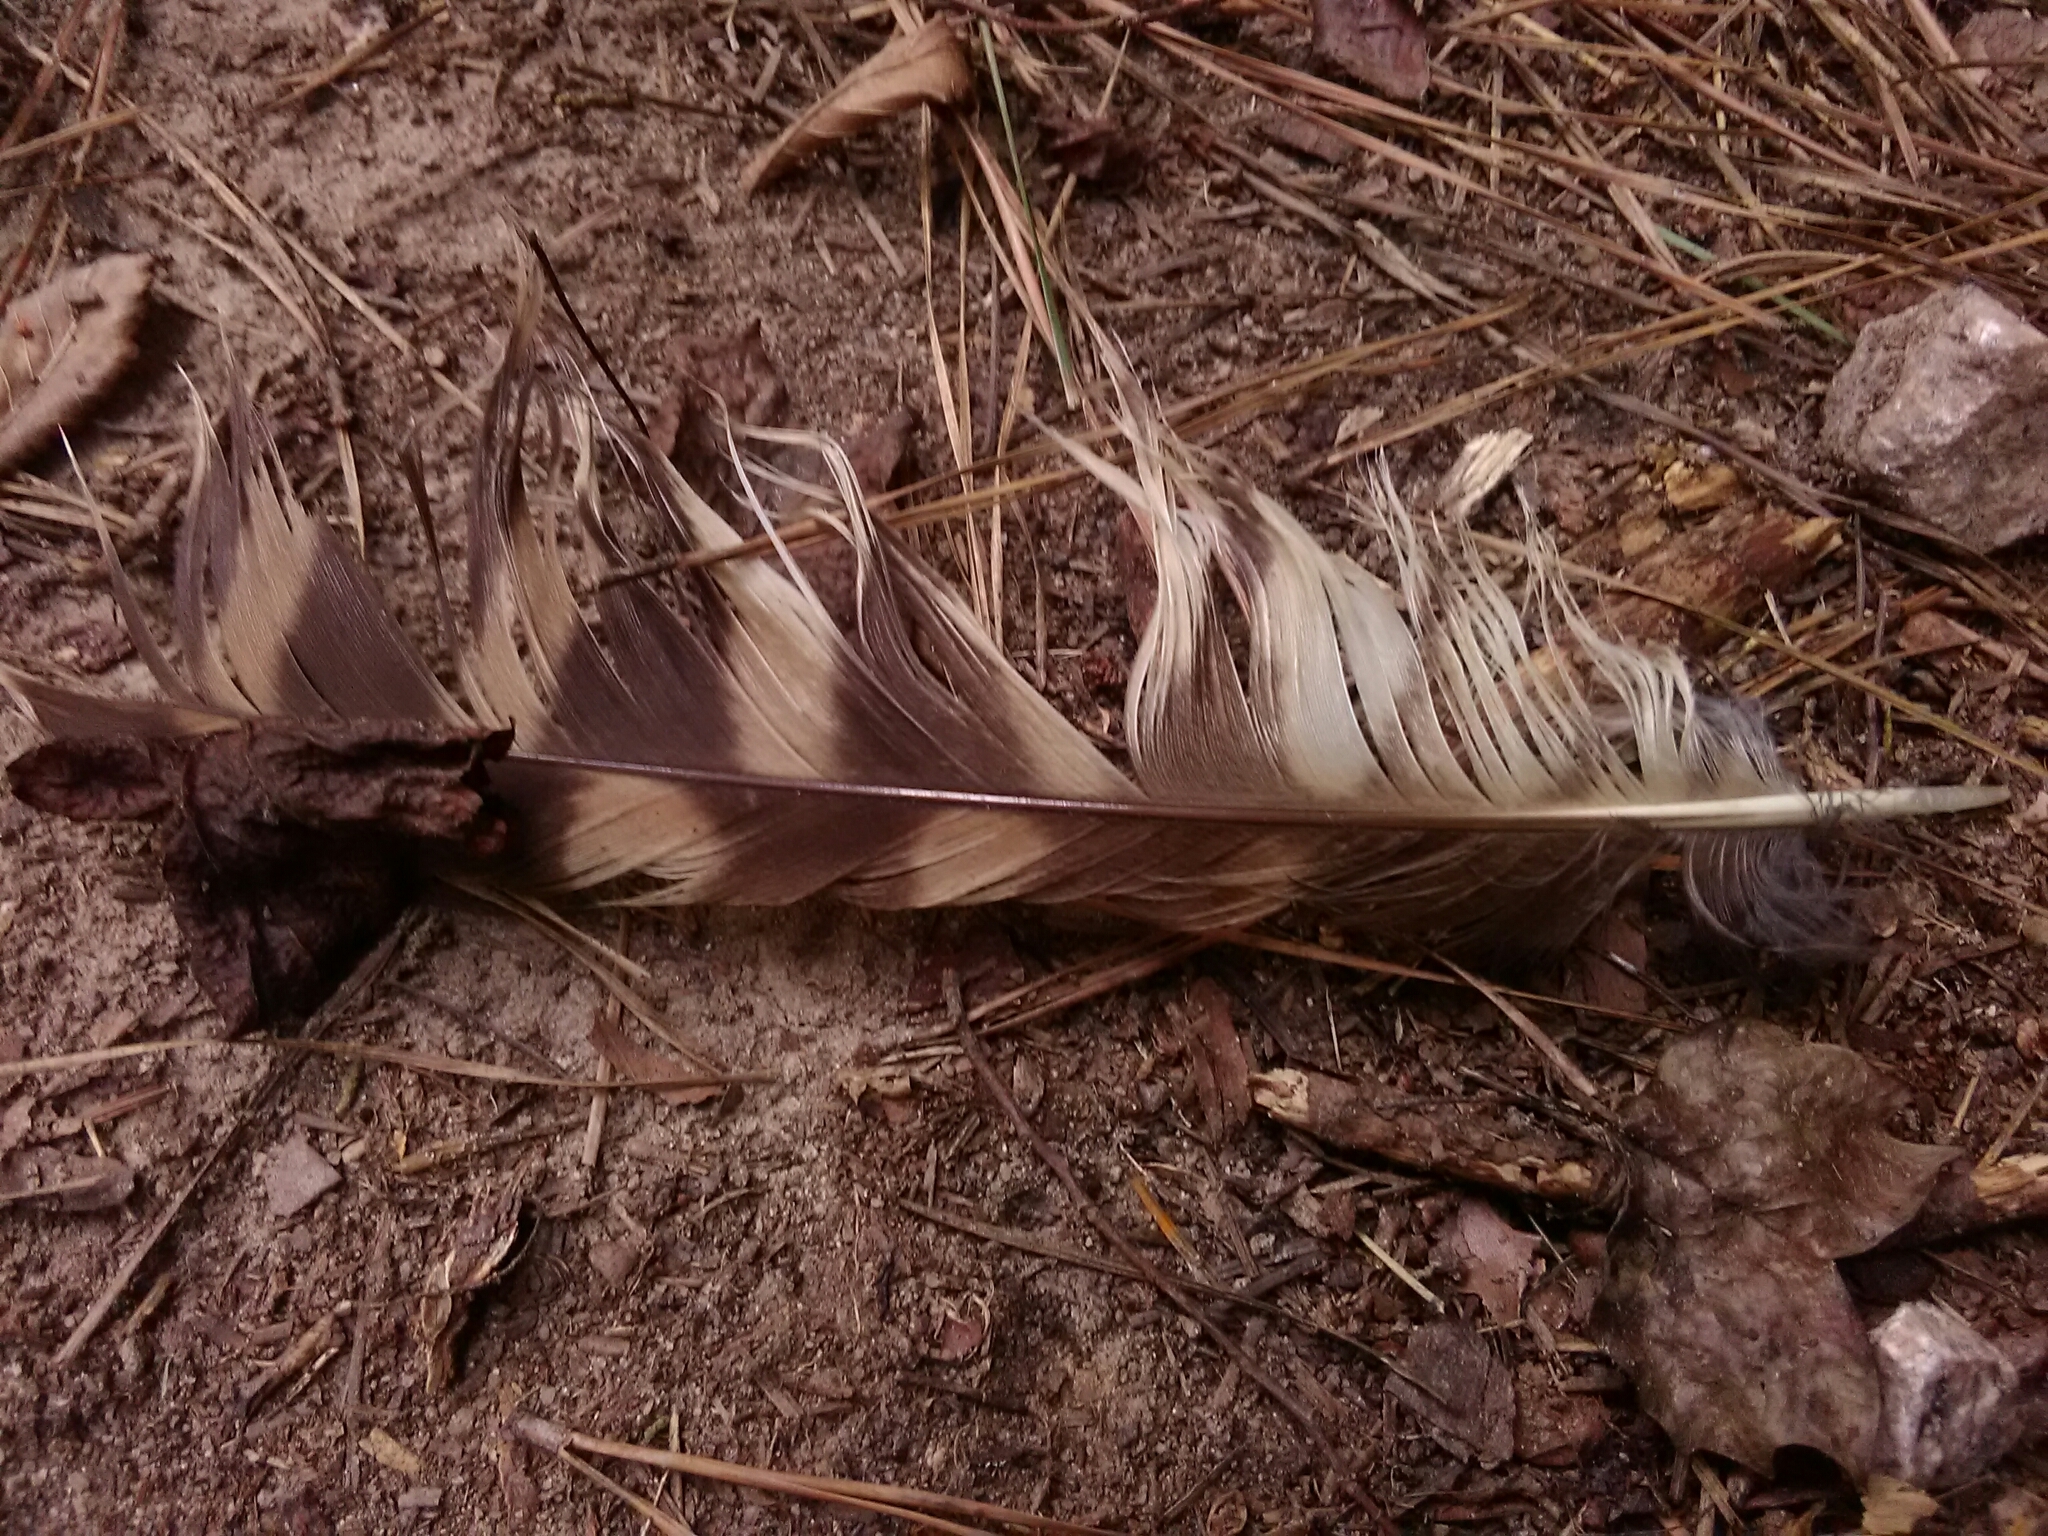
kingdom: Animalia
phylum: Chordata
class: Aves
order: Strigiformes
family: Strigidae
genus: Strix
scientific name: Strix varia
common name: Barred owl
